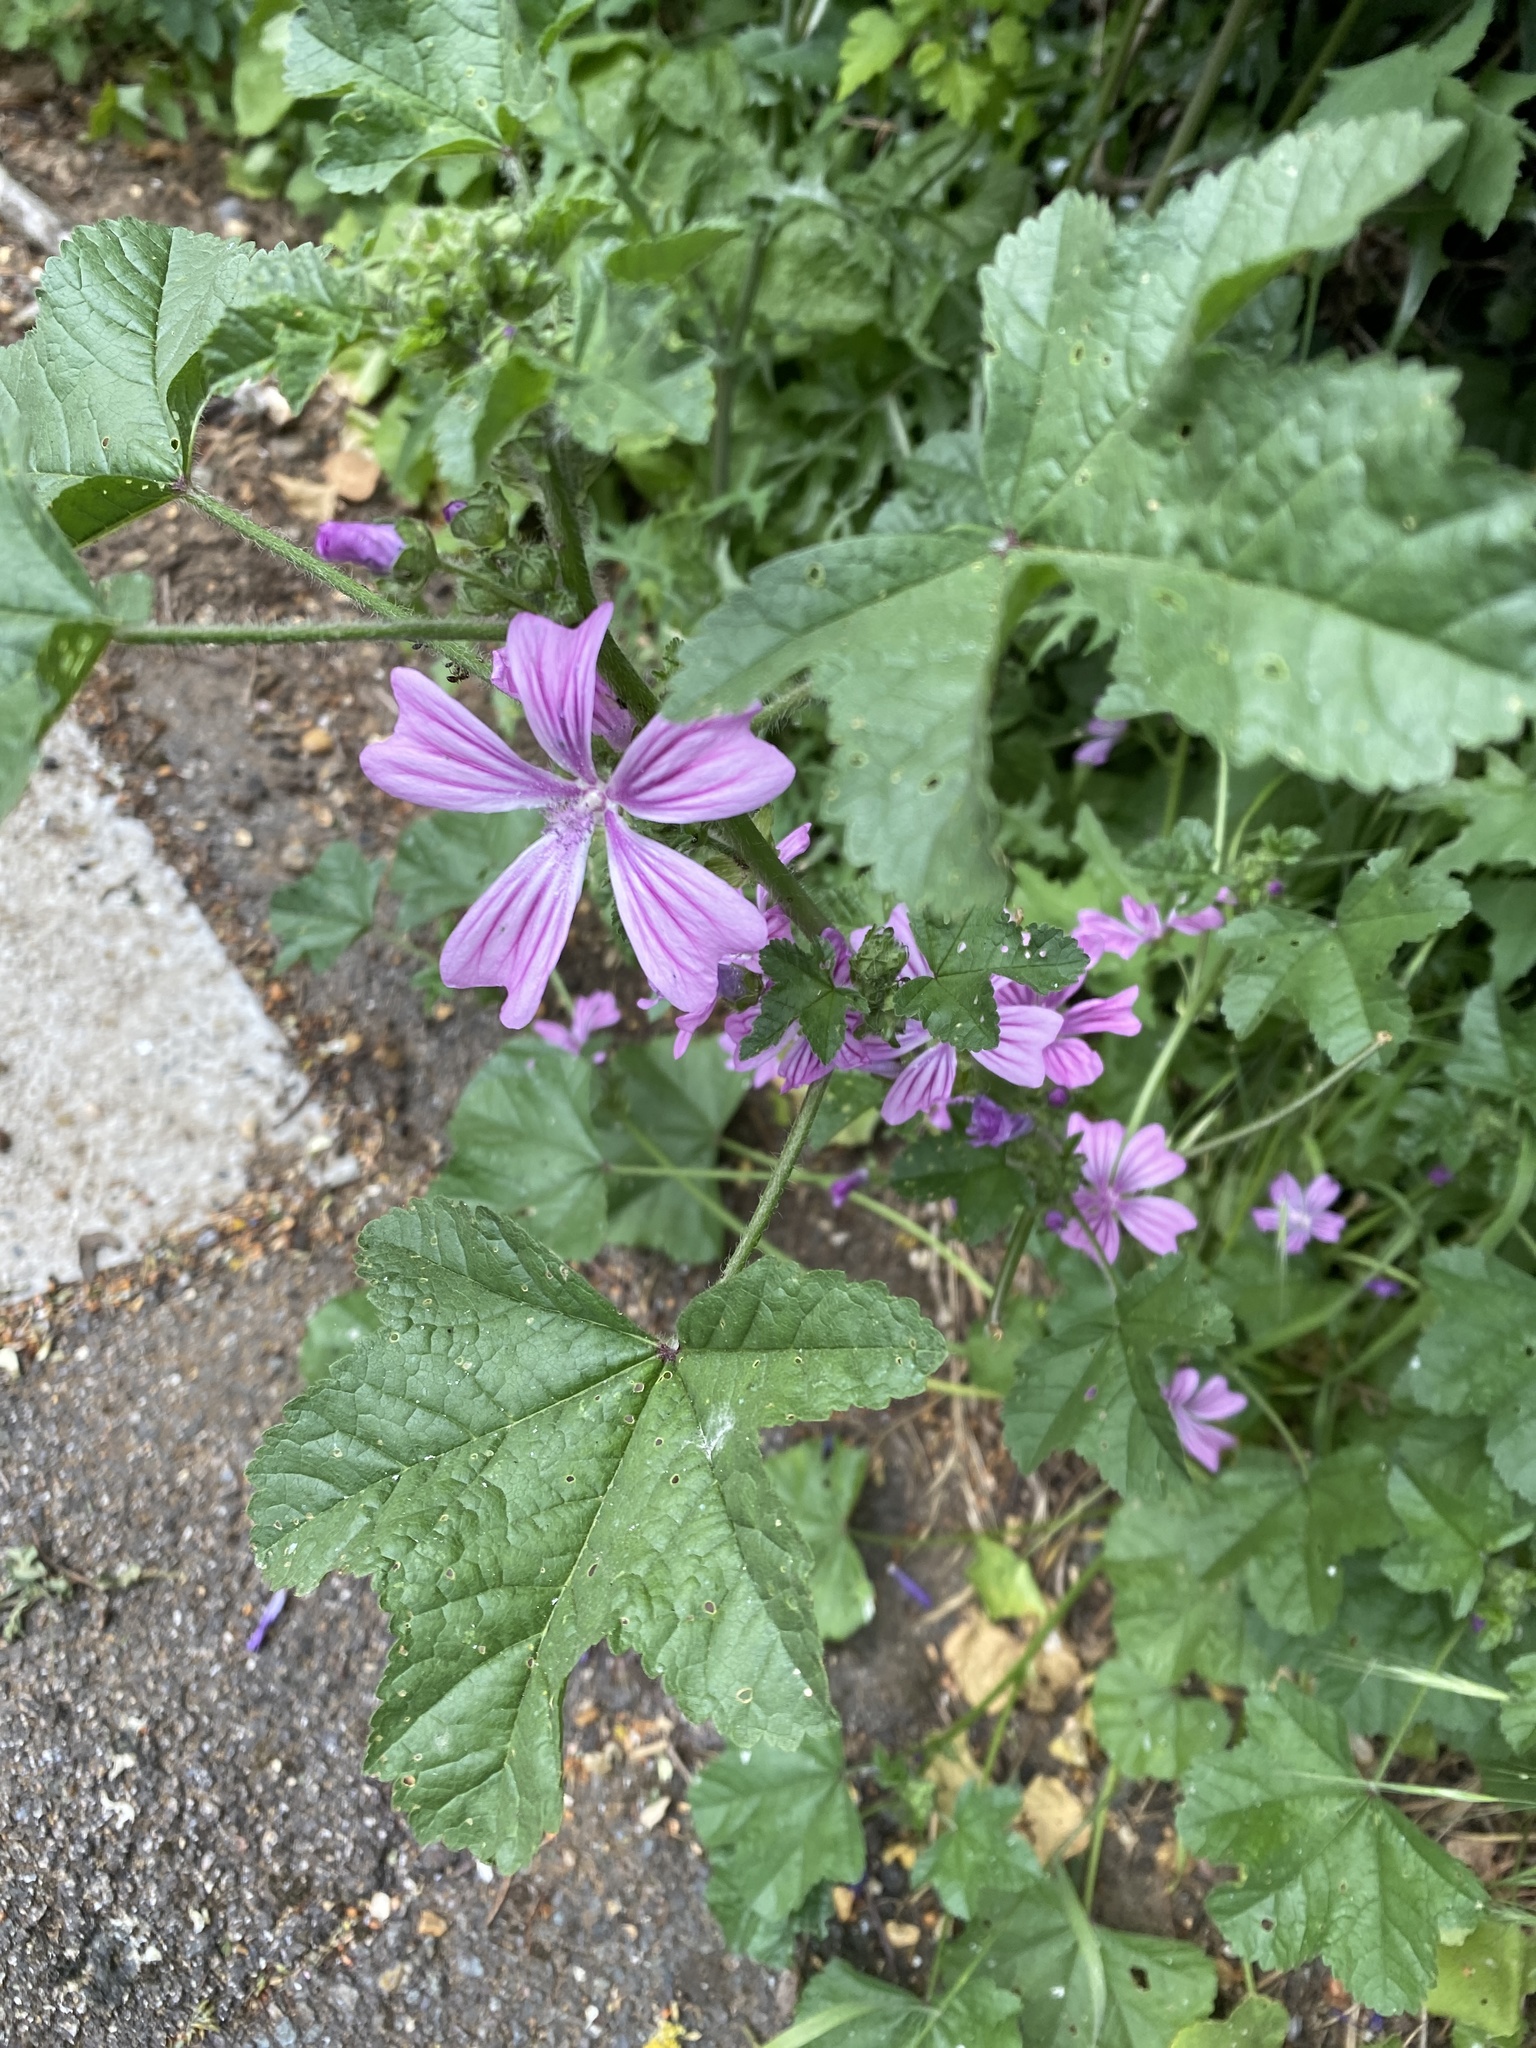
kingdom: Plantae
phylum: Tracheophyta
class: Magnoliopsida
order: Malvales
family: Malvaceae
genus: Malva
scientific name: Malva sylvestris
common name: Common mallow
